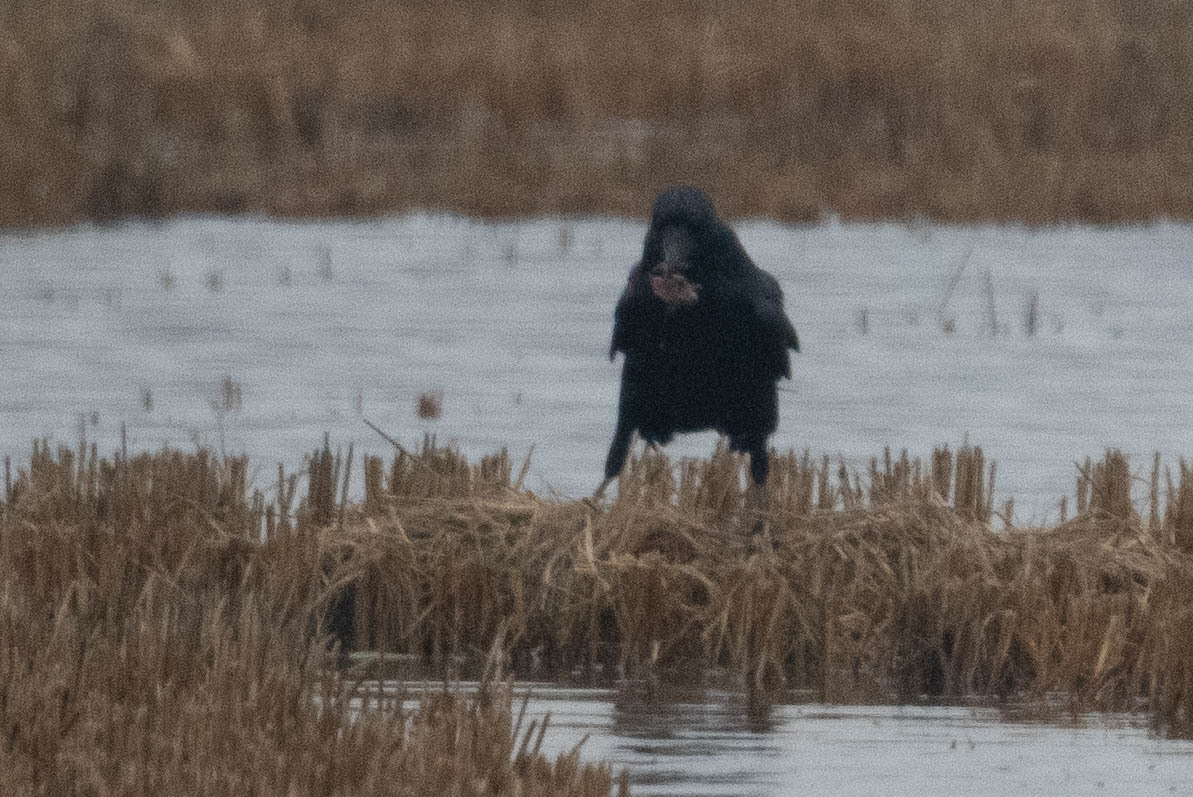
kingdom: Animalia
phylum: Chordata
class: Aves
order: Passeriformes
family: Corvidae
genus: Corvus
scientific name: Corvus corax
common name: Common raven
